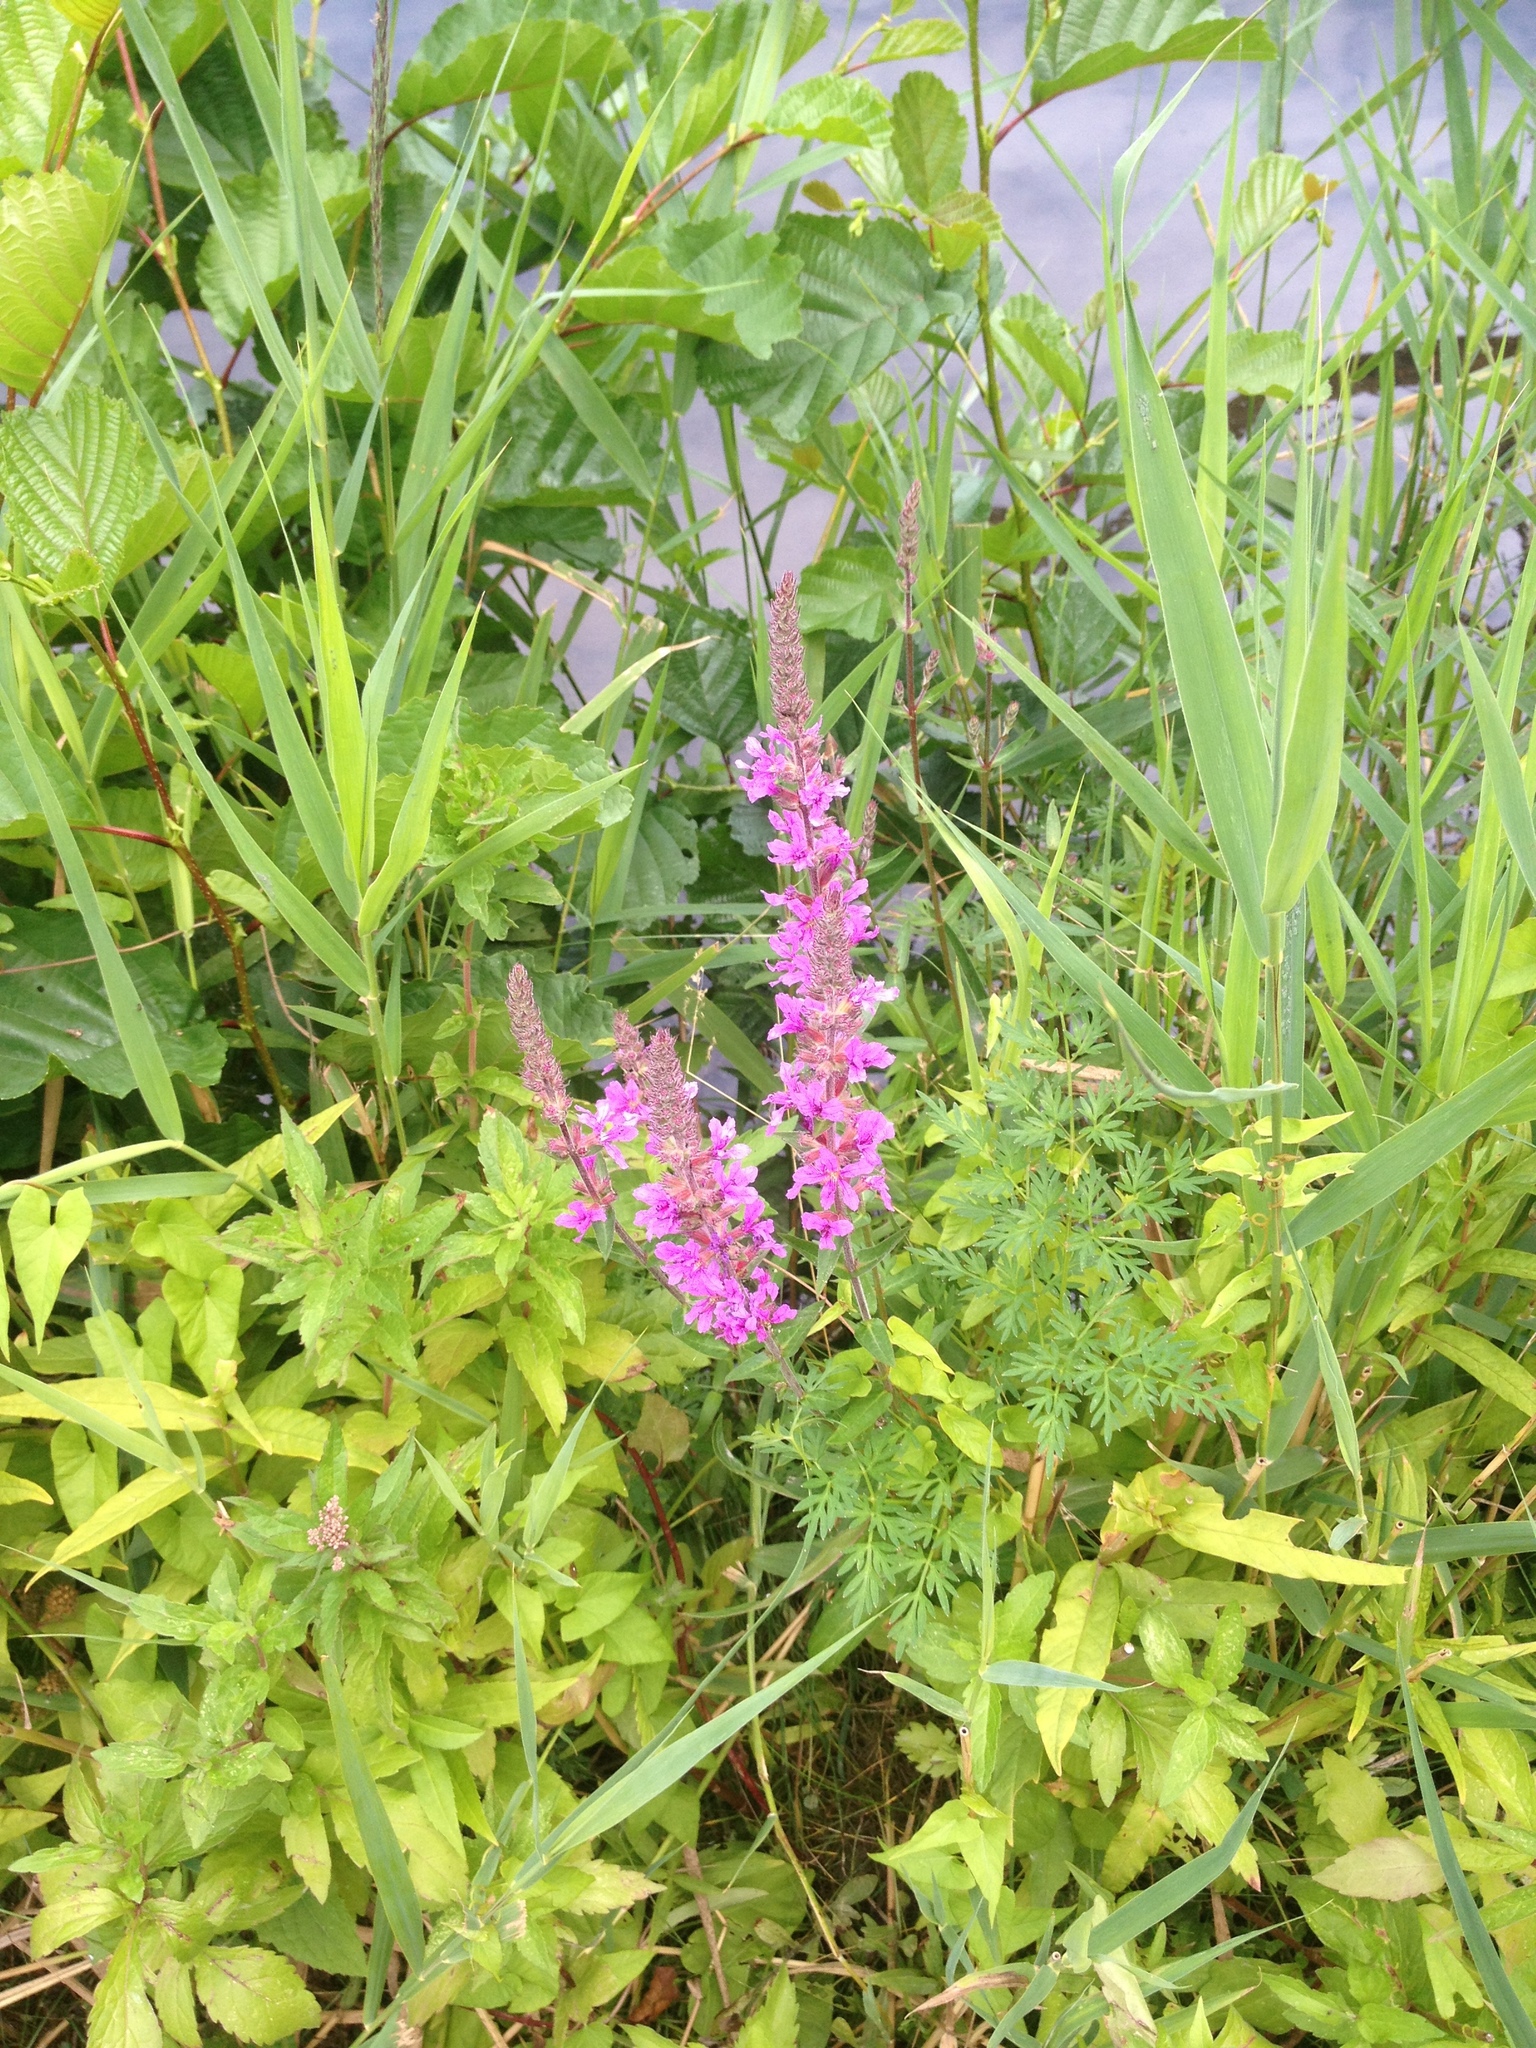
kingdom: Plantae
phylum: Tracheophyta
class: Magnoliopsida
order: Myrtales
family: Lythraceae
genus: Lythrum
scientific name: Lythrum salicaria
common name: Purple loosestrife
